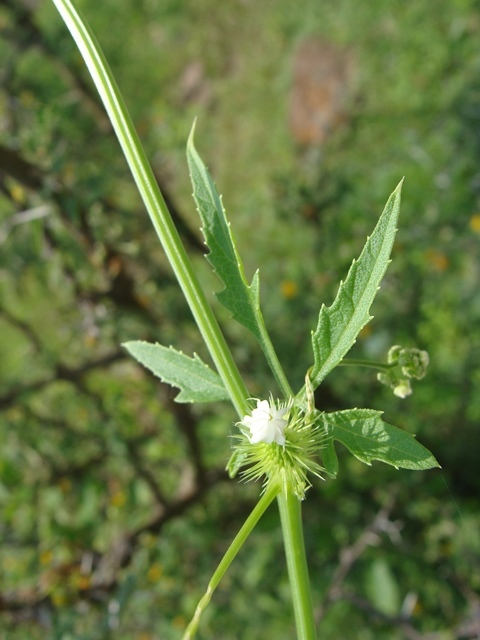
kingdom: Plantae
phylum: Tracheophyta
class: Magnoliopsida
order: Cucurbitales
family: Cucurbitaceae
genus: Cyclanthera
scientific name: Cyclanthera dissecta
